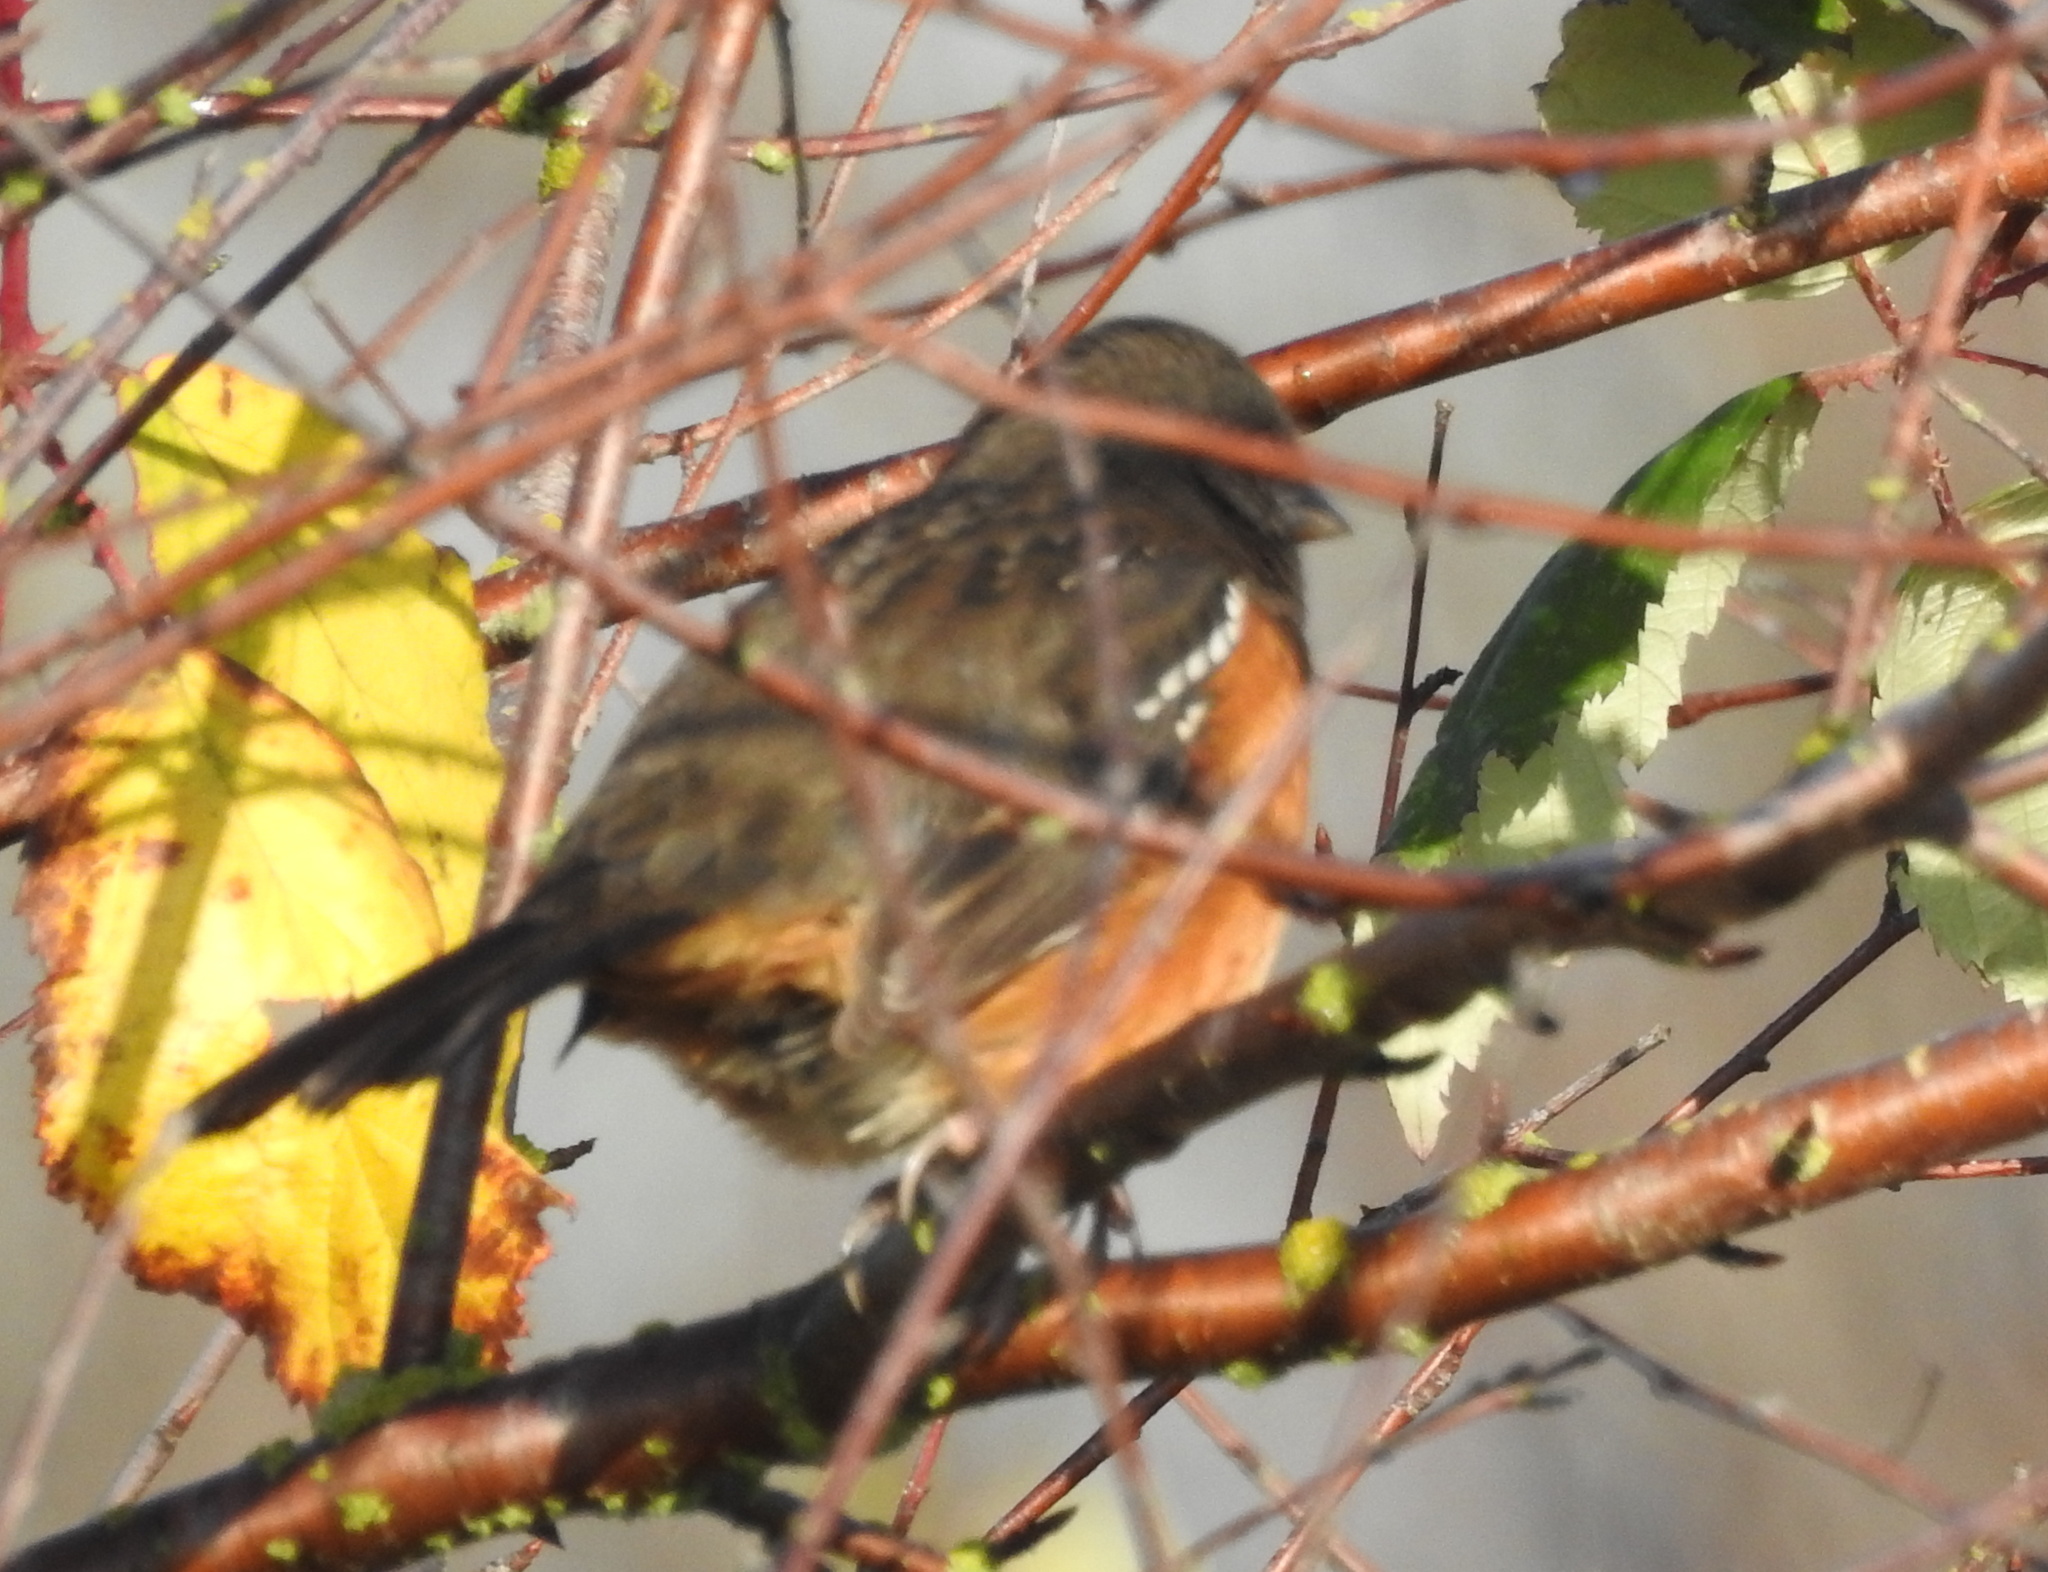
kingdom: Animalia
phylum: Chordata
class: Aves
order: Passeriformes
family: Passerellidae
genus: Pipilo
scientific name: Pipilo maculatus
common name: Spotted towhee
